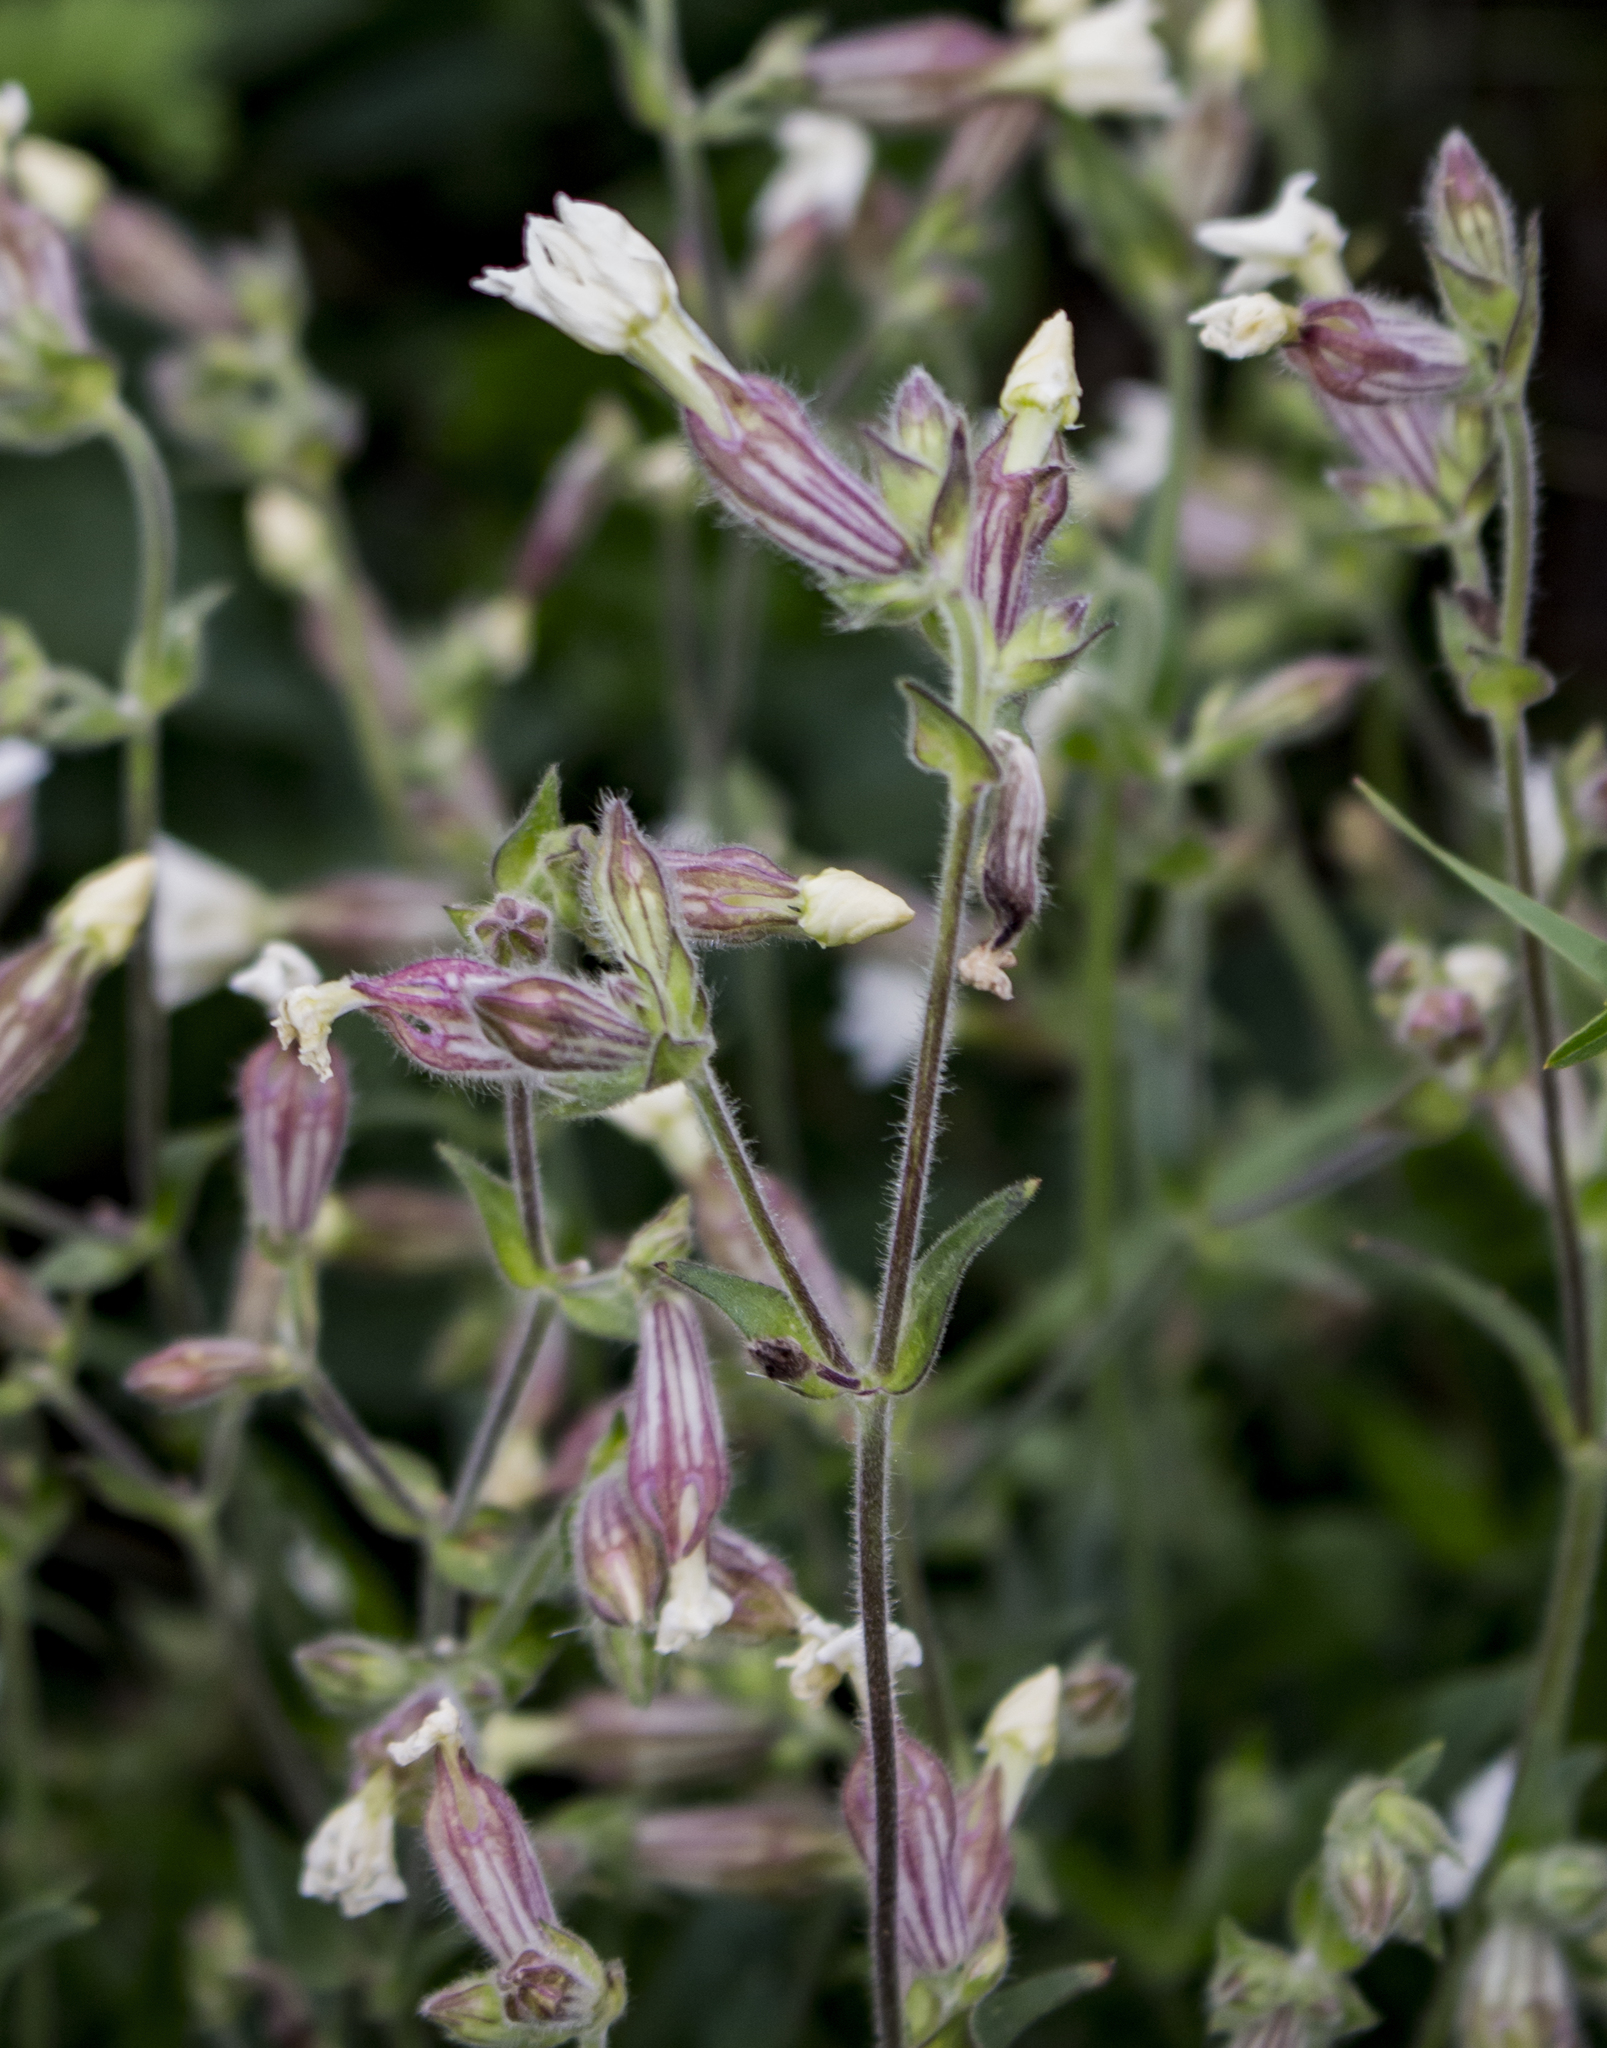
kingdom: Plantae
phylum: Tracheophyta
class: Magnoliopsida
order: Caryophyllales
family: Caryophyllaceae
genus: Silene
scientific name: Silene latifolia
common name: White campion
